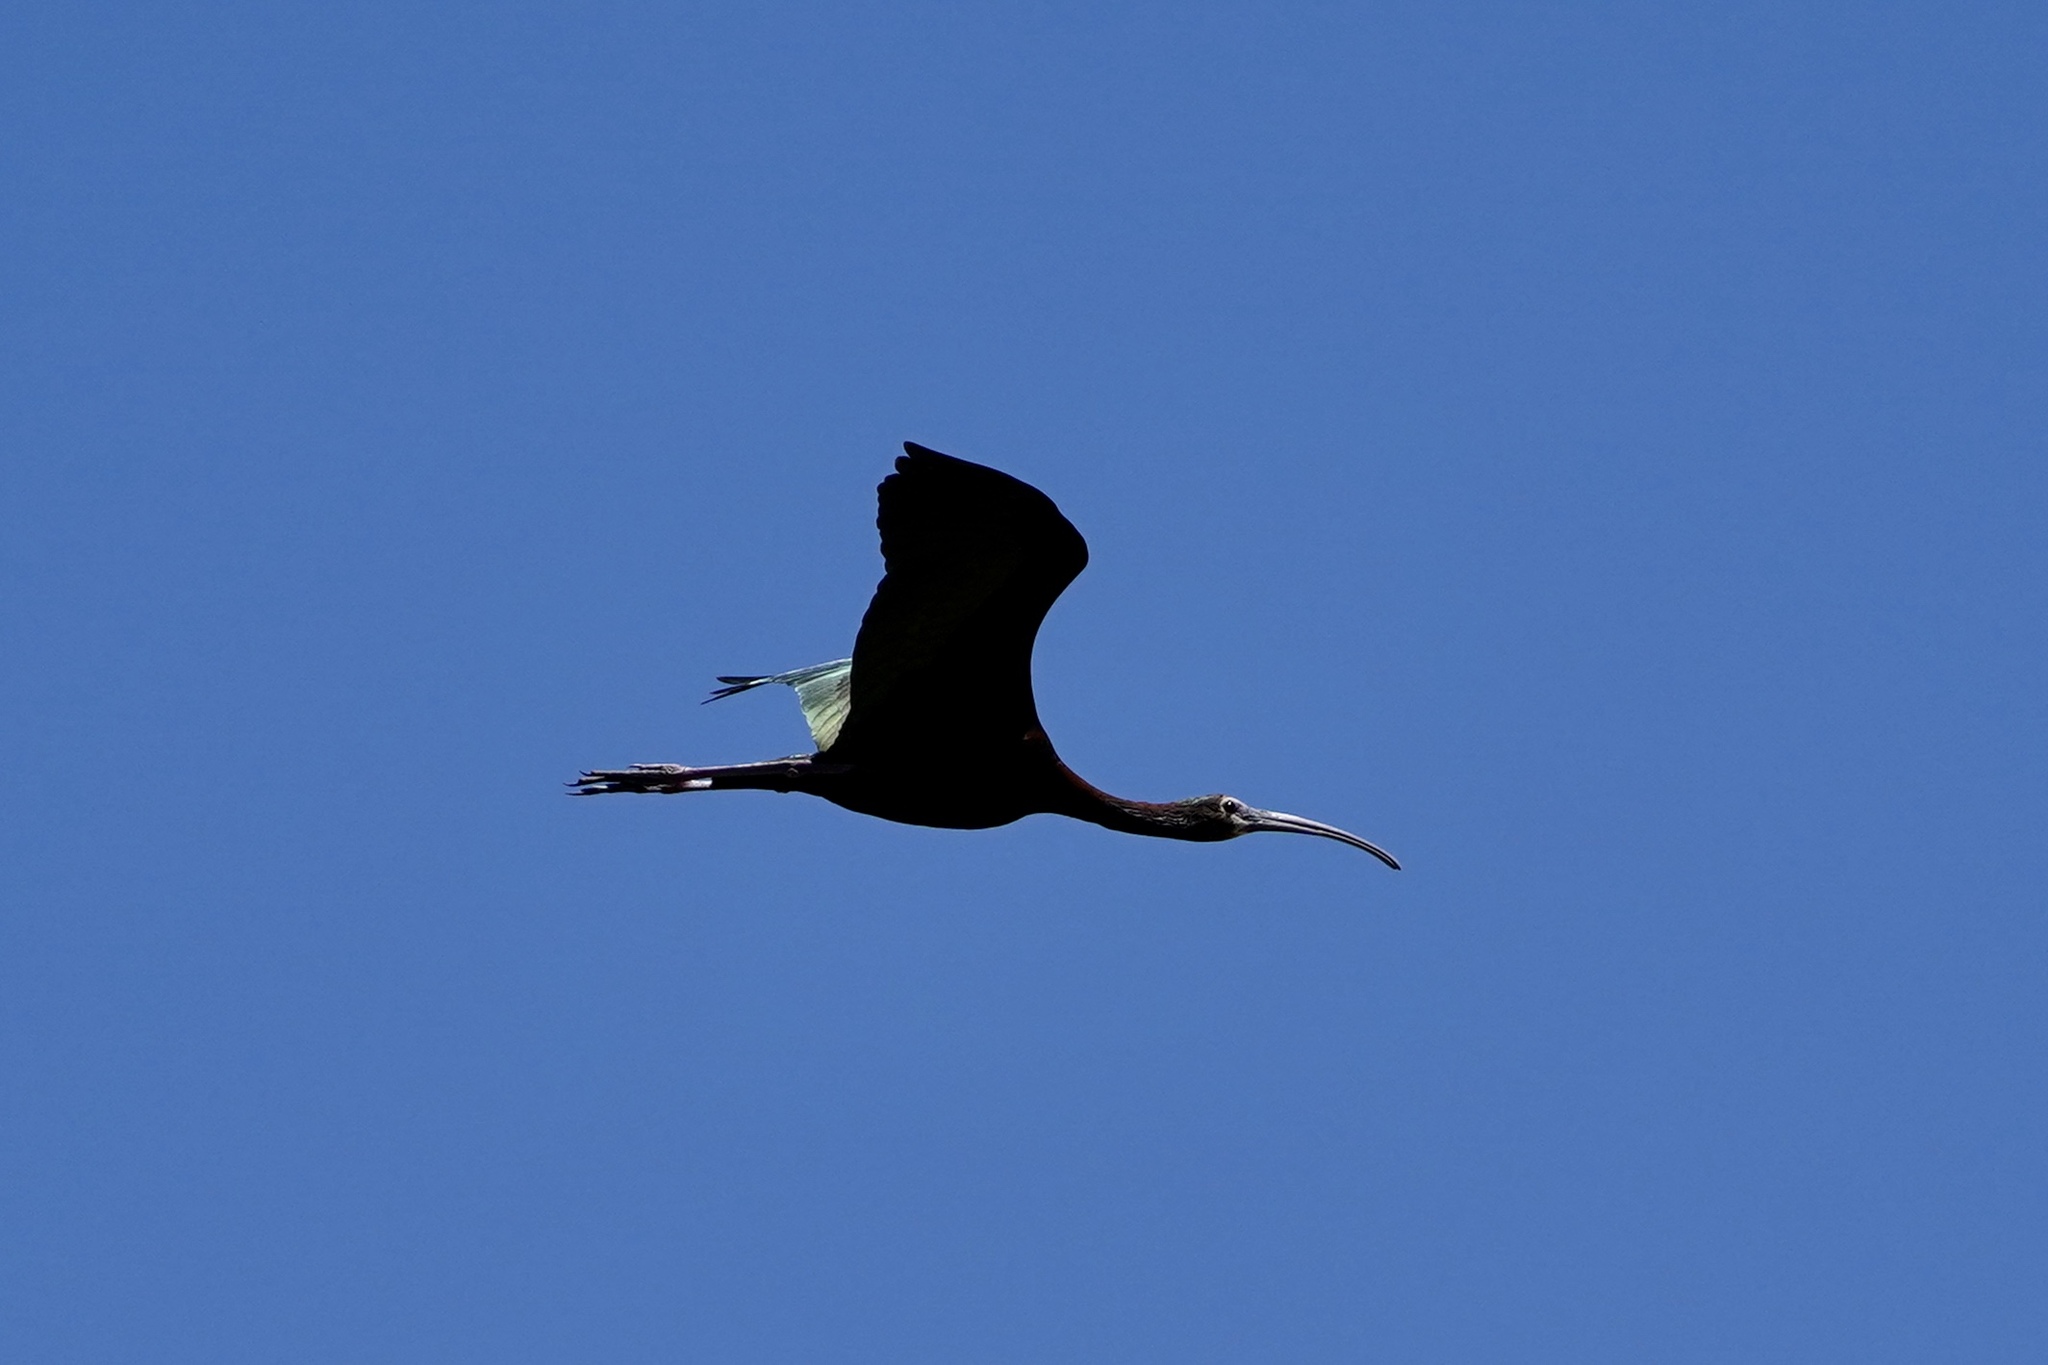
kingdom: Animalia
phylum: Chordata
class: Aves
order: Pelecaniformes
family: Threskiornithidae
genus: Plegadis
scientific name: Plegadis chihi
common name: White-faced ibis
